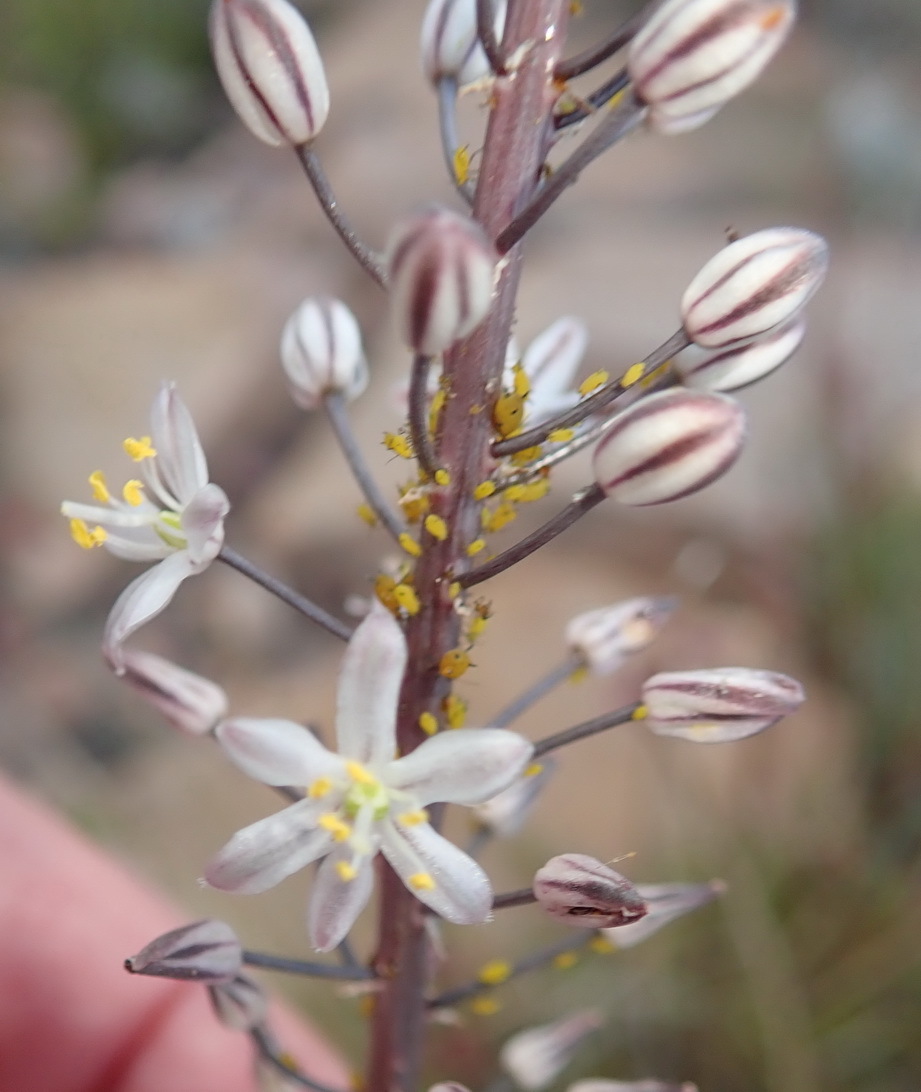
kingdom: Plantae
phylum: Tracheophyta
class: Liliopsida
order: Asparagales
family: Asparagaceae
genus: Drimia
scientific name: Drimia anomala
